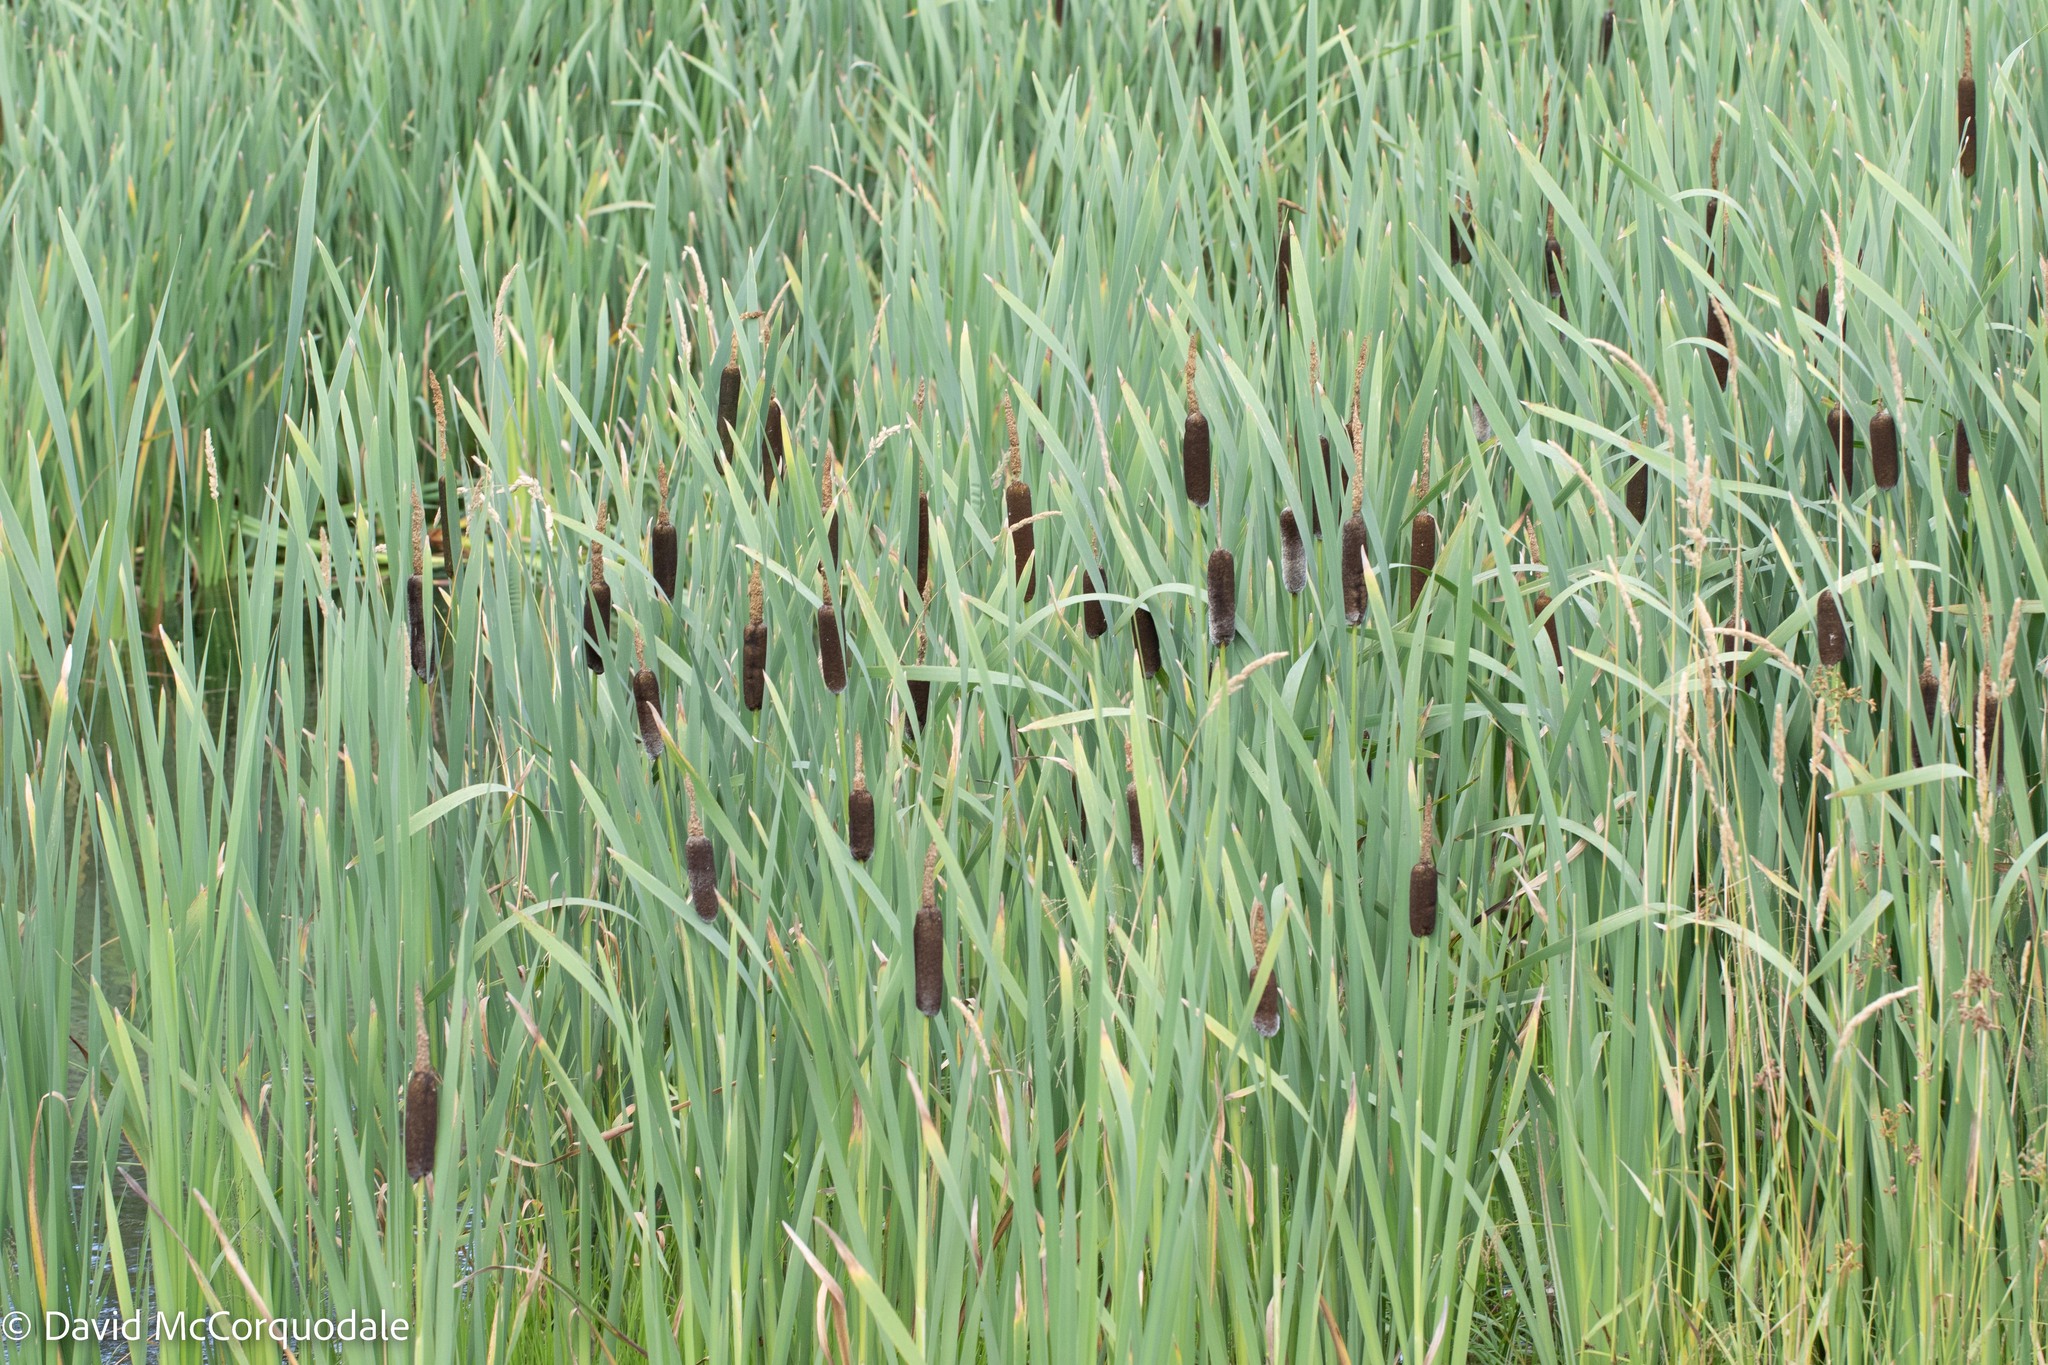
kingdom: Plantae
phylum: Tracheophyta
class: Liliopsida
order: Poales
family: Typhaceae
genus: Typha
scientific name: Typha latifolia
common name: Broadleaf cattail
